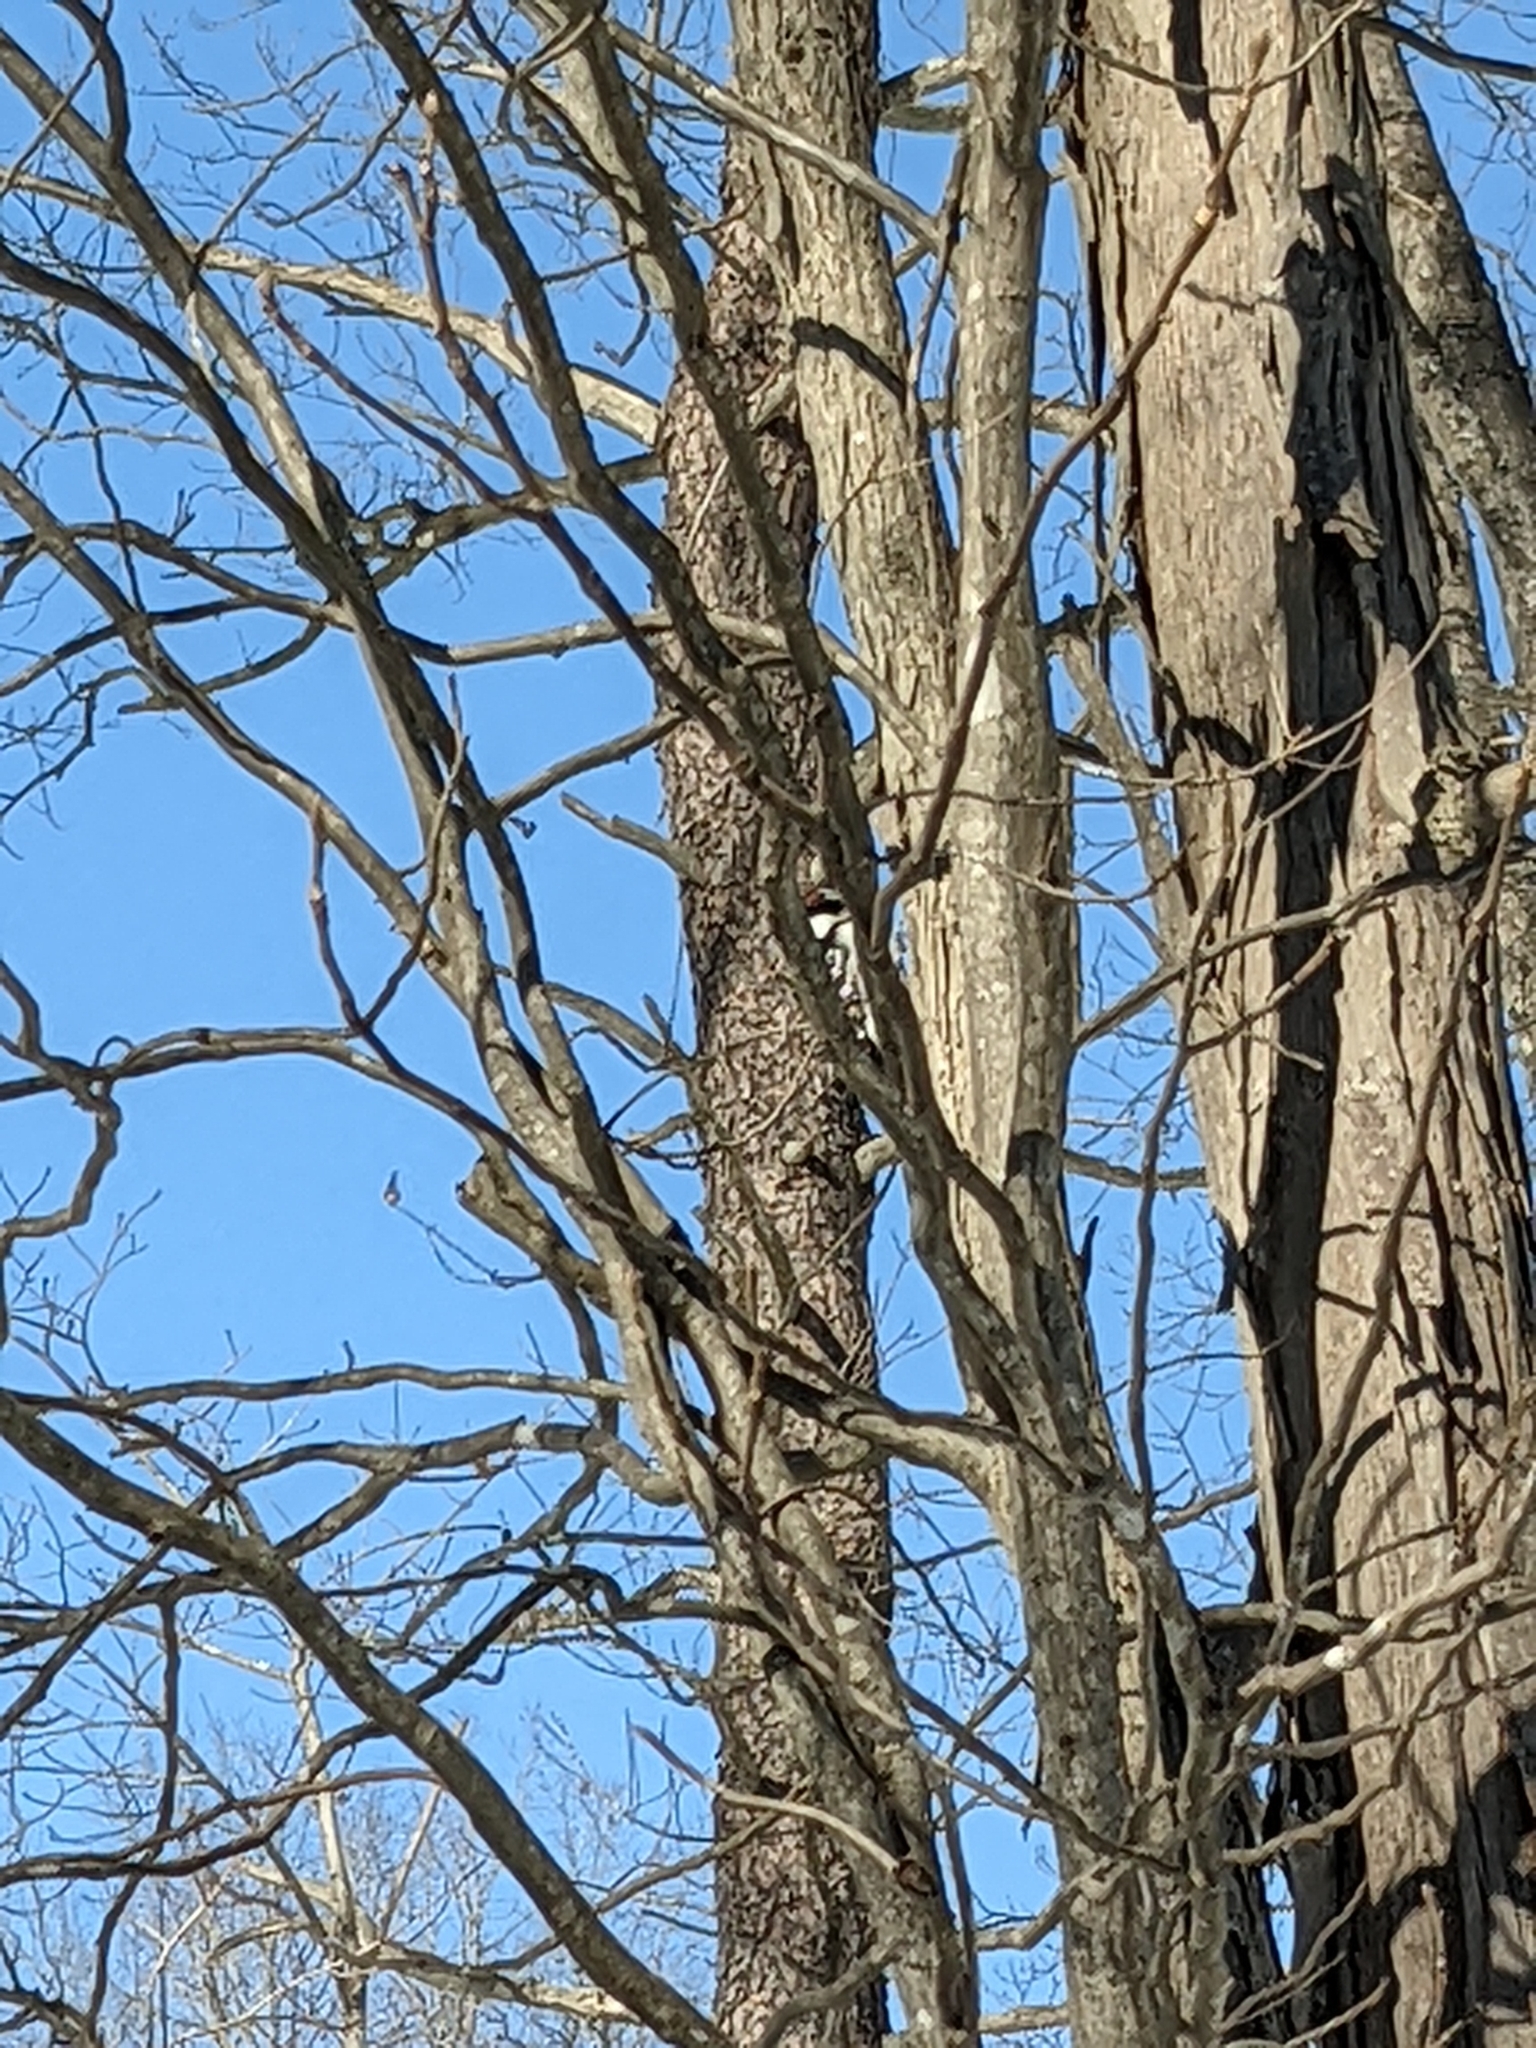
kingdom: Animalia
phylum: Chordata
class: Aves
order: Piciformes
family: Picidae
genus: Leuconotopicus
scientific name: Leuconotopicus villosus
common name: Hairy woodpecker
